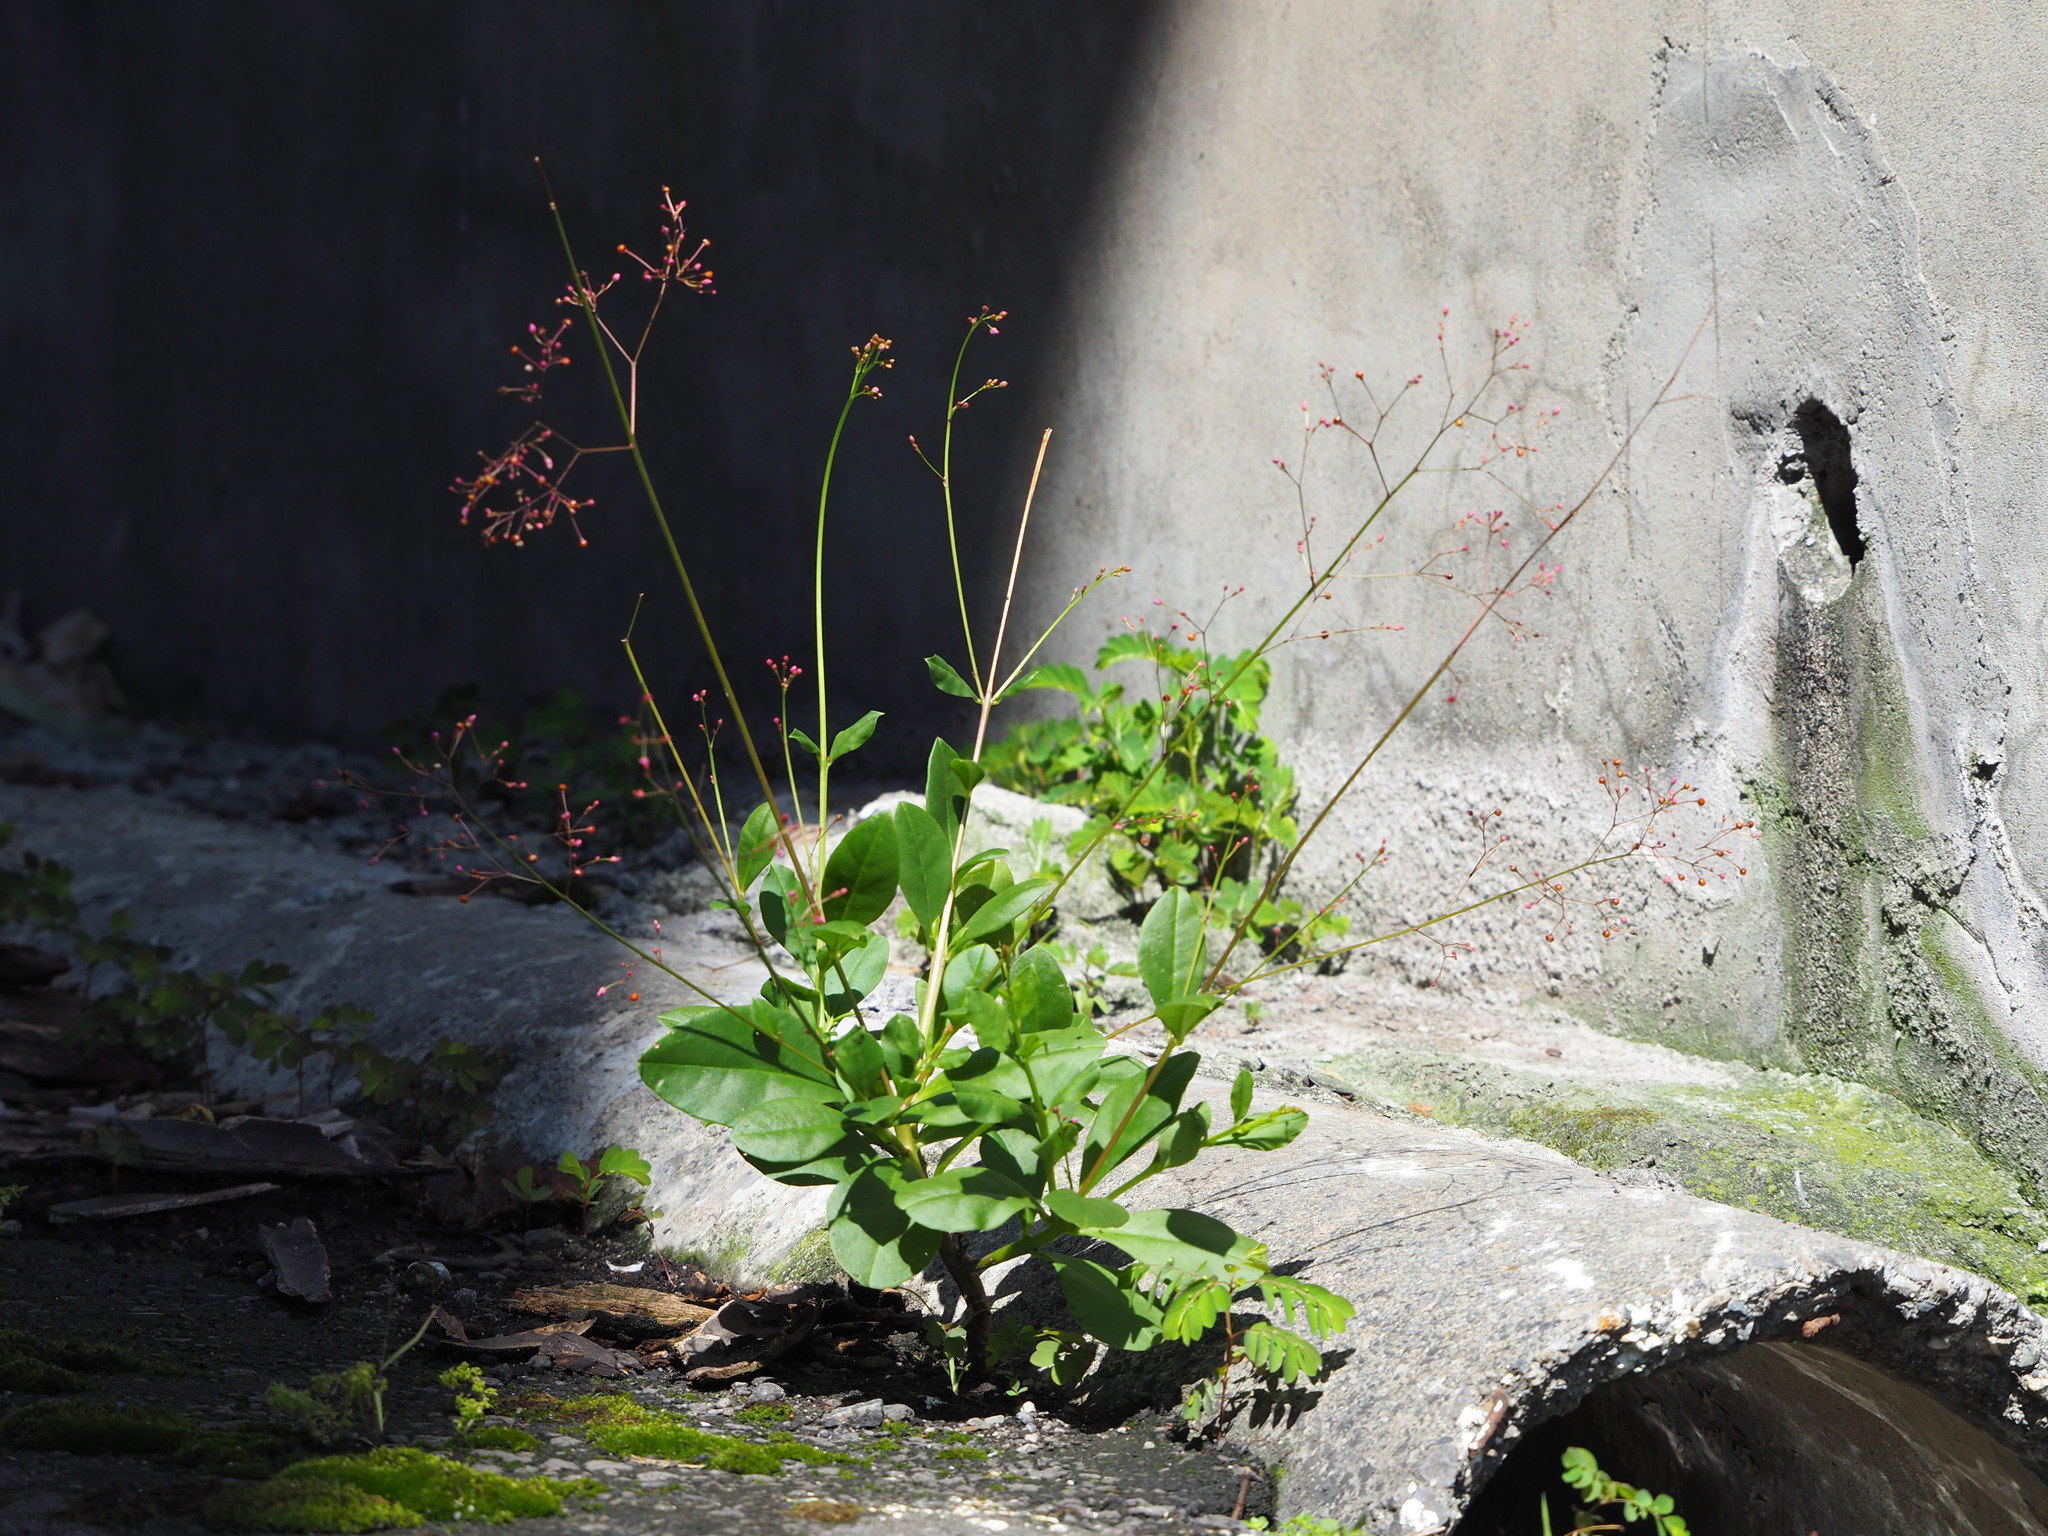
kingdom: Plantae
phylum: Tracheophyta
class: Magnoliopsida
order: Caryophyllales
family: Talinaceae
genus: Talinum
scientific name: Talinum paniculatum
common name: Jewels of opar
